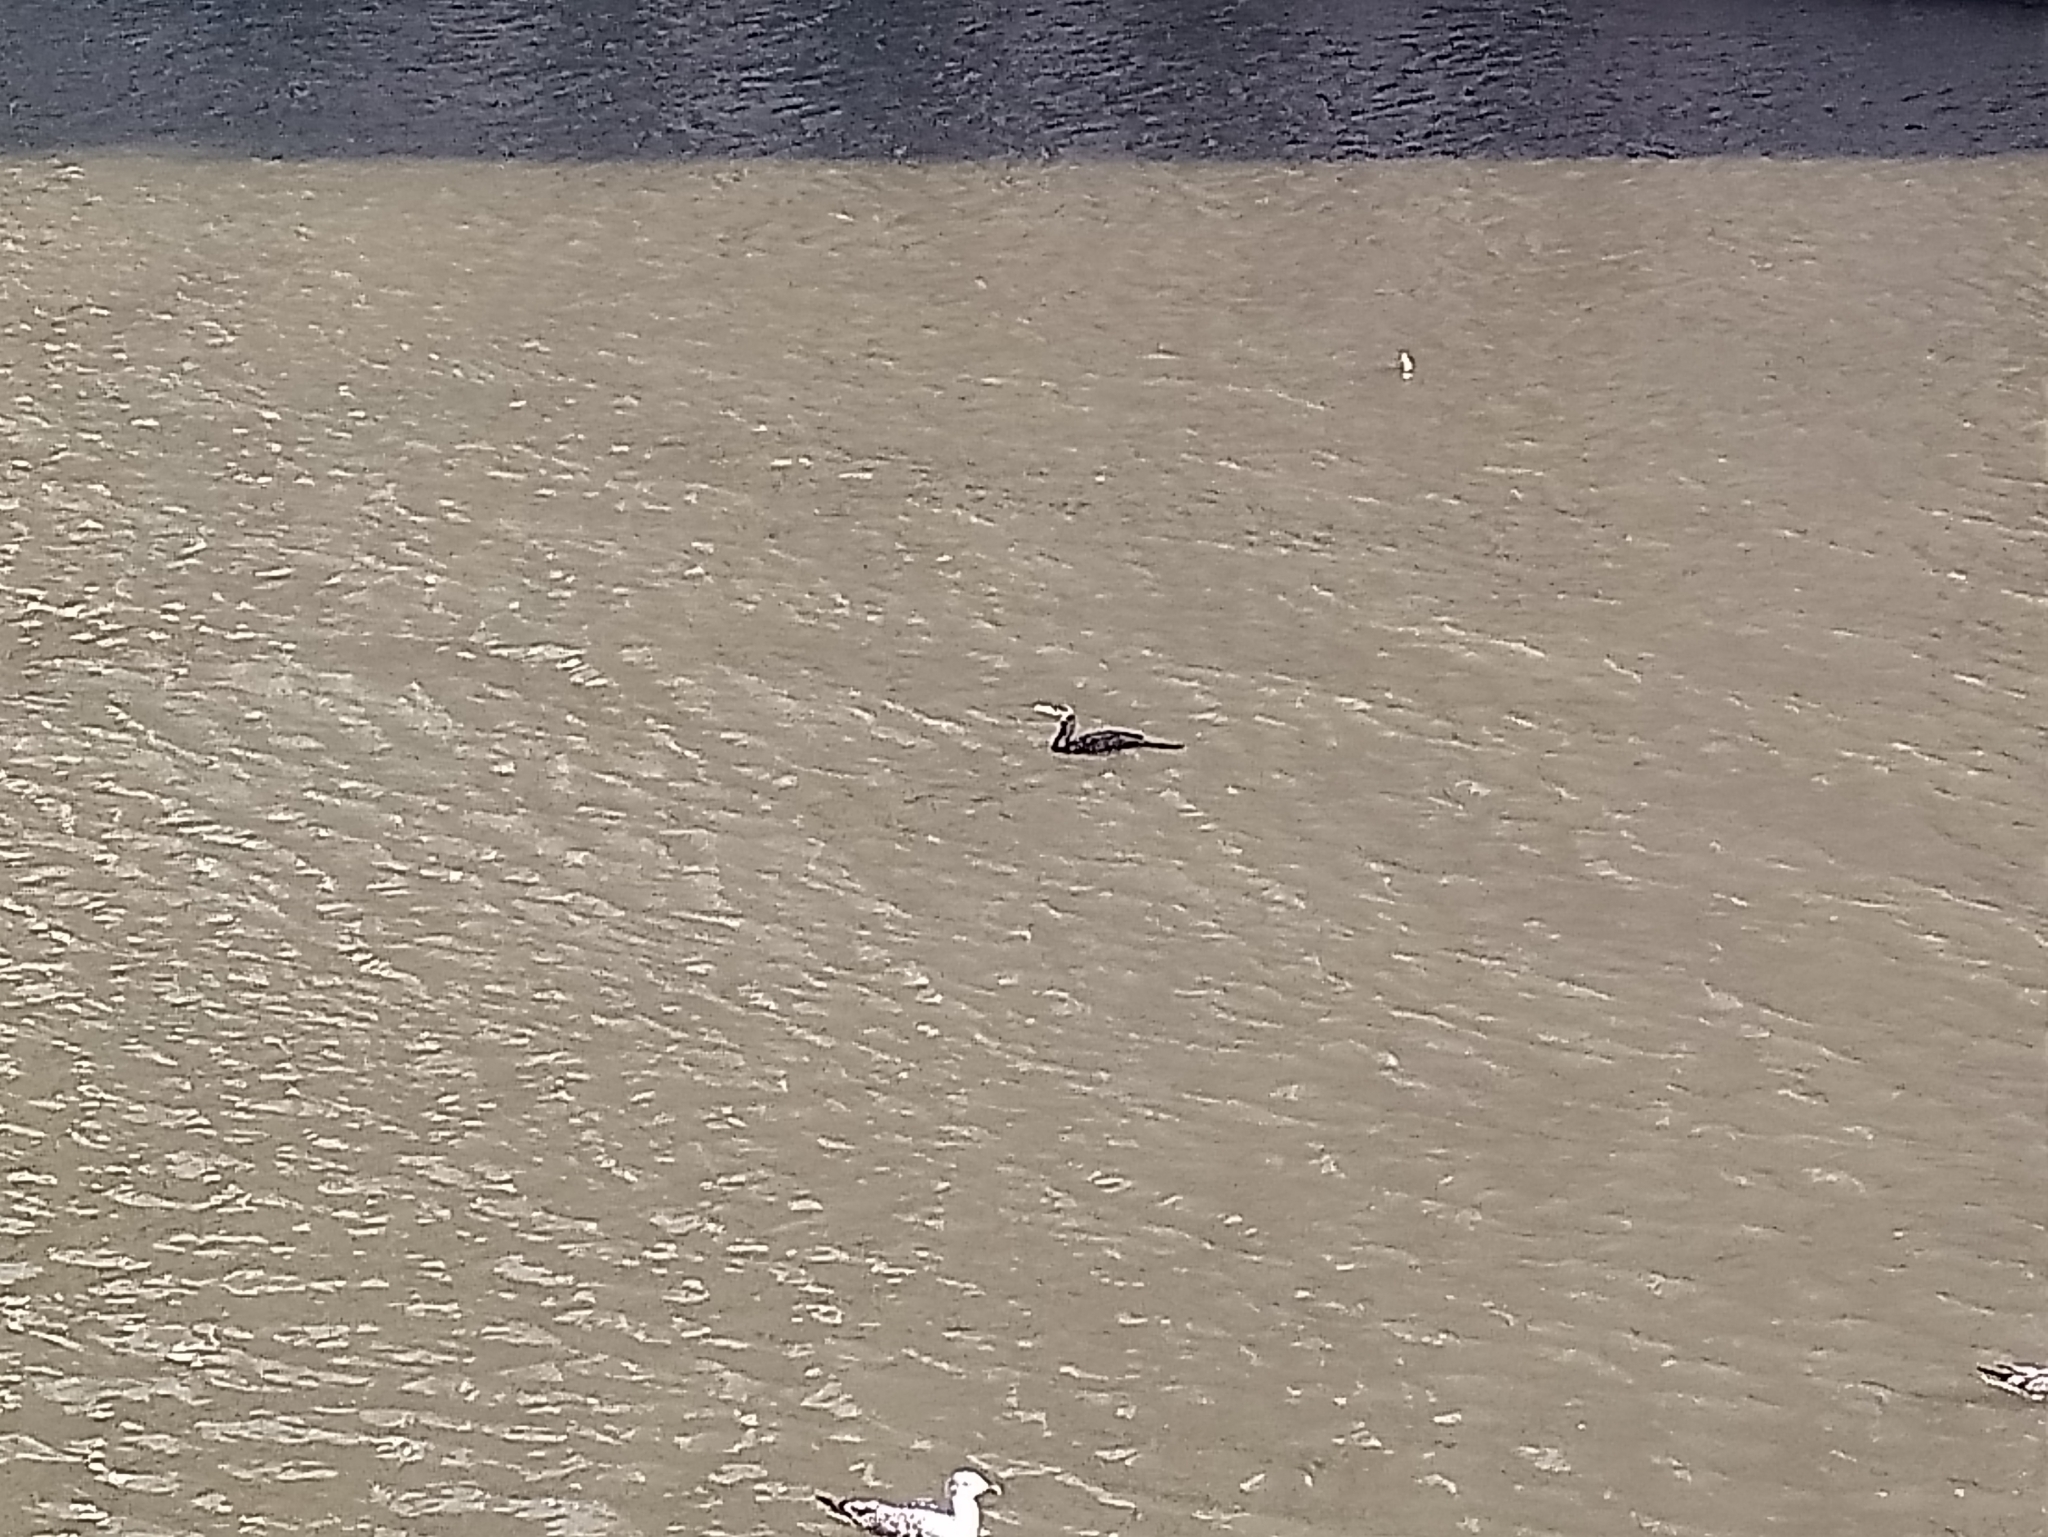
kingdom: Animalia
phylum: Chordata
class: Aves
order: Suliformes
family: Phalacrocoracidae
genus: Phalacrocorax
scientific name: Phalacrocorax carbo
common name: Great cormorant
